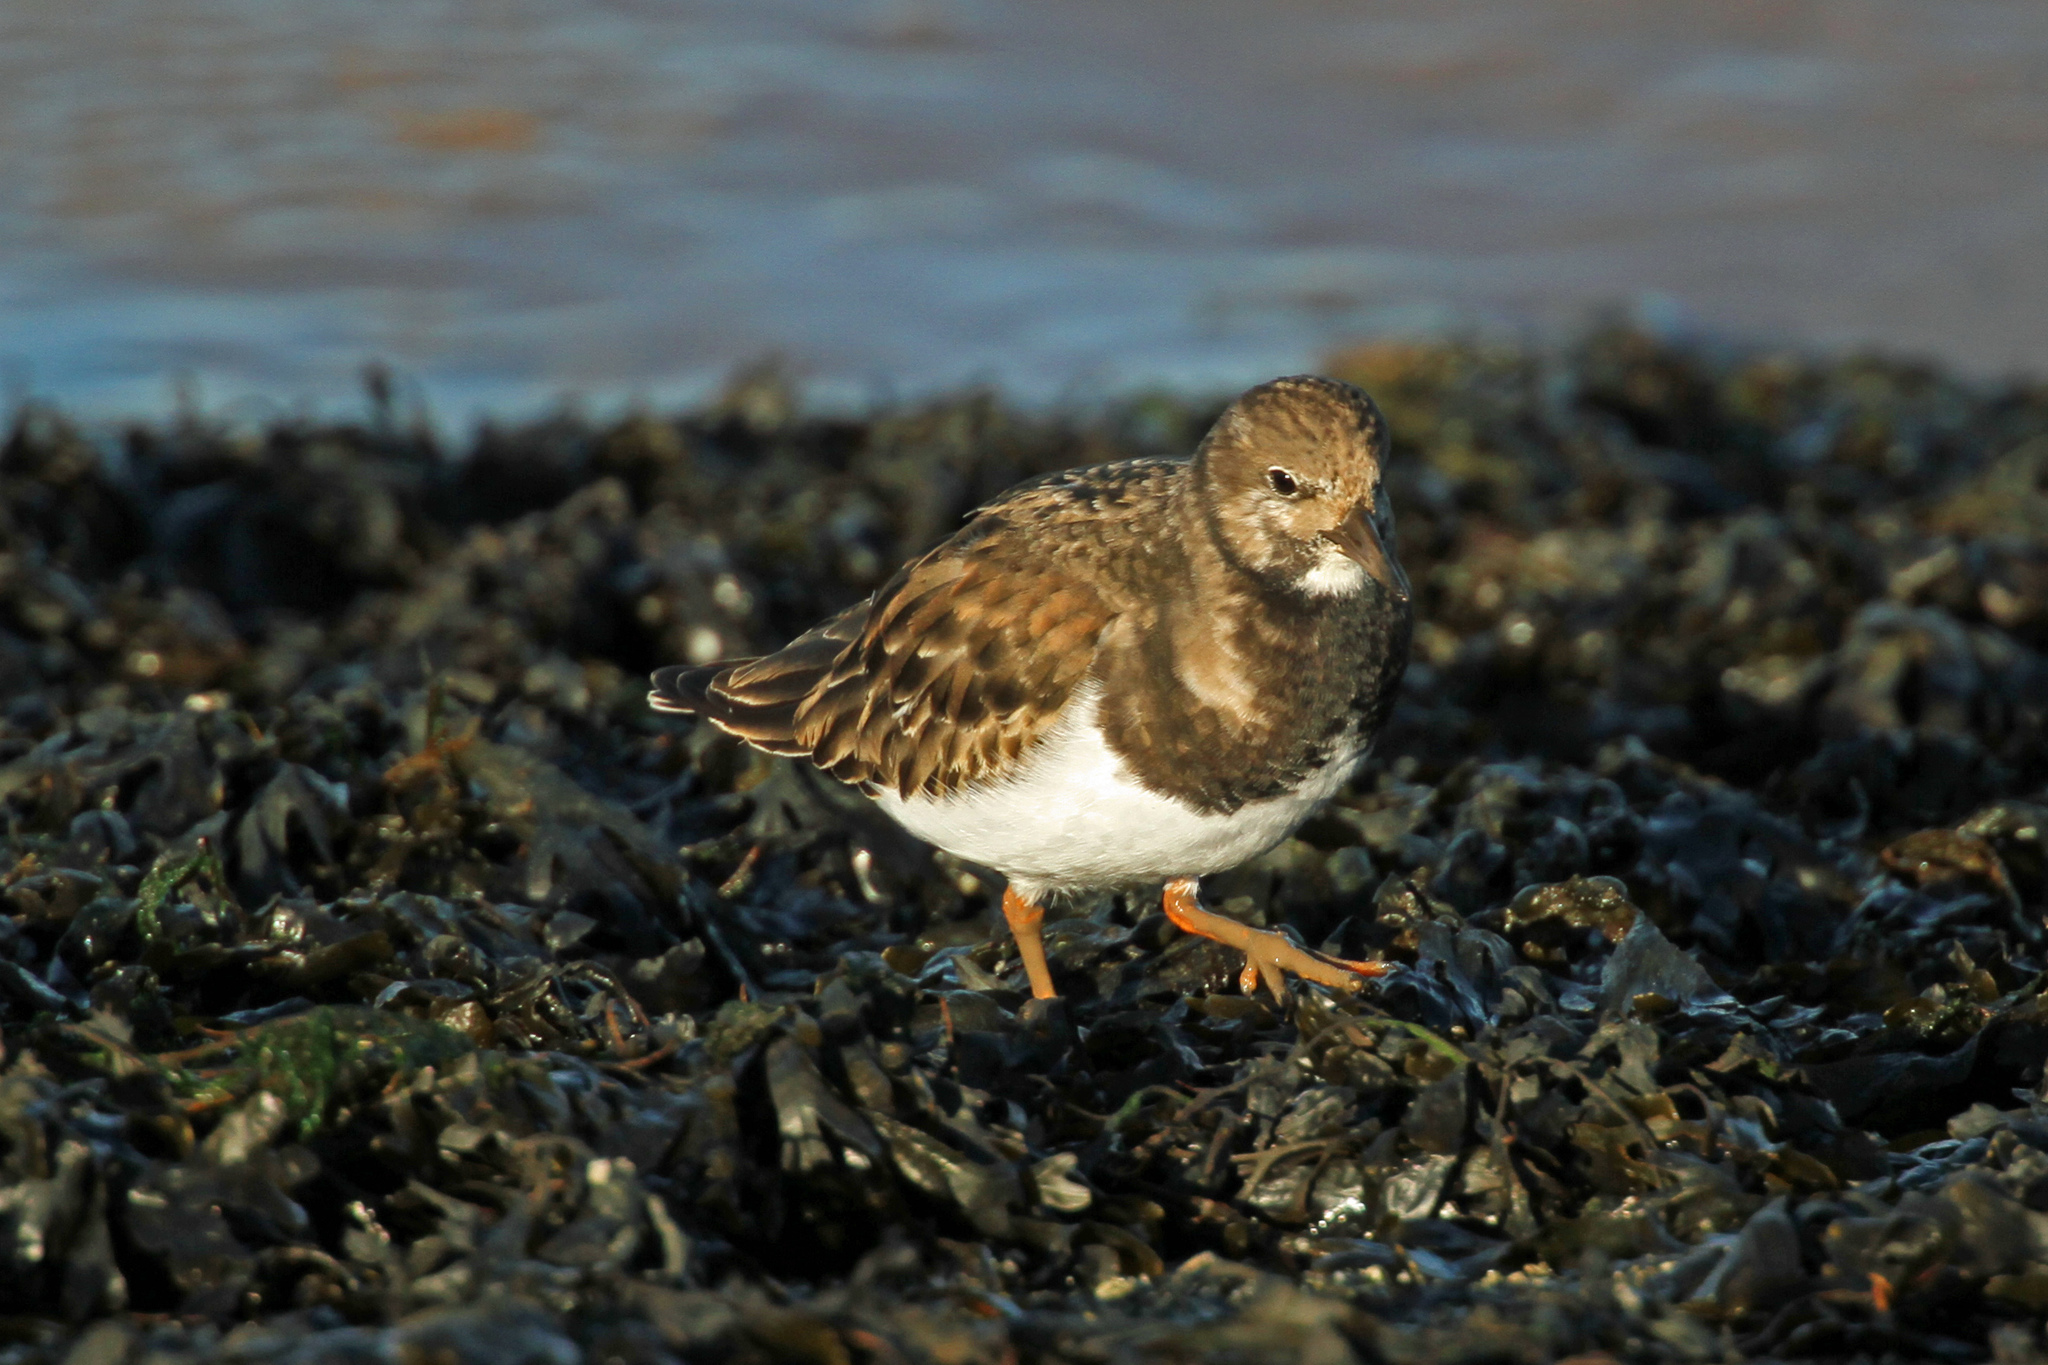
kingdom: Animalia
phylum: Chordata
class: Aves
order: Charadriiformes
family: Scolopacidae
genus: Arenaria
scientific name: Arenaria interpres
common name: Ruddy turnstone
